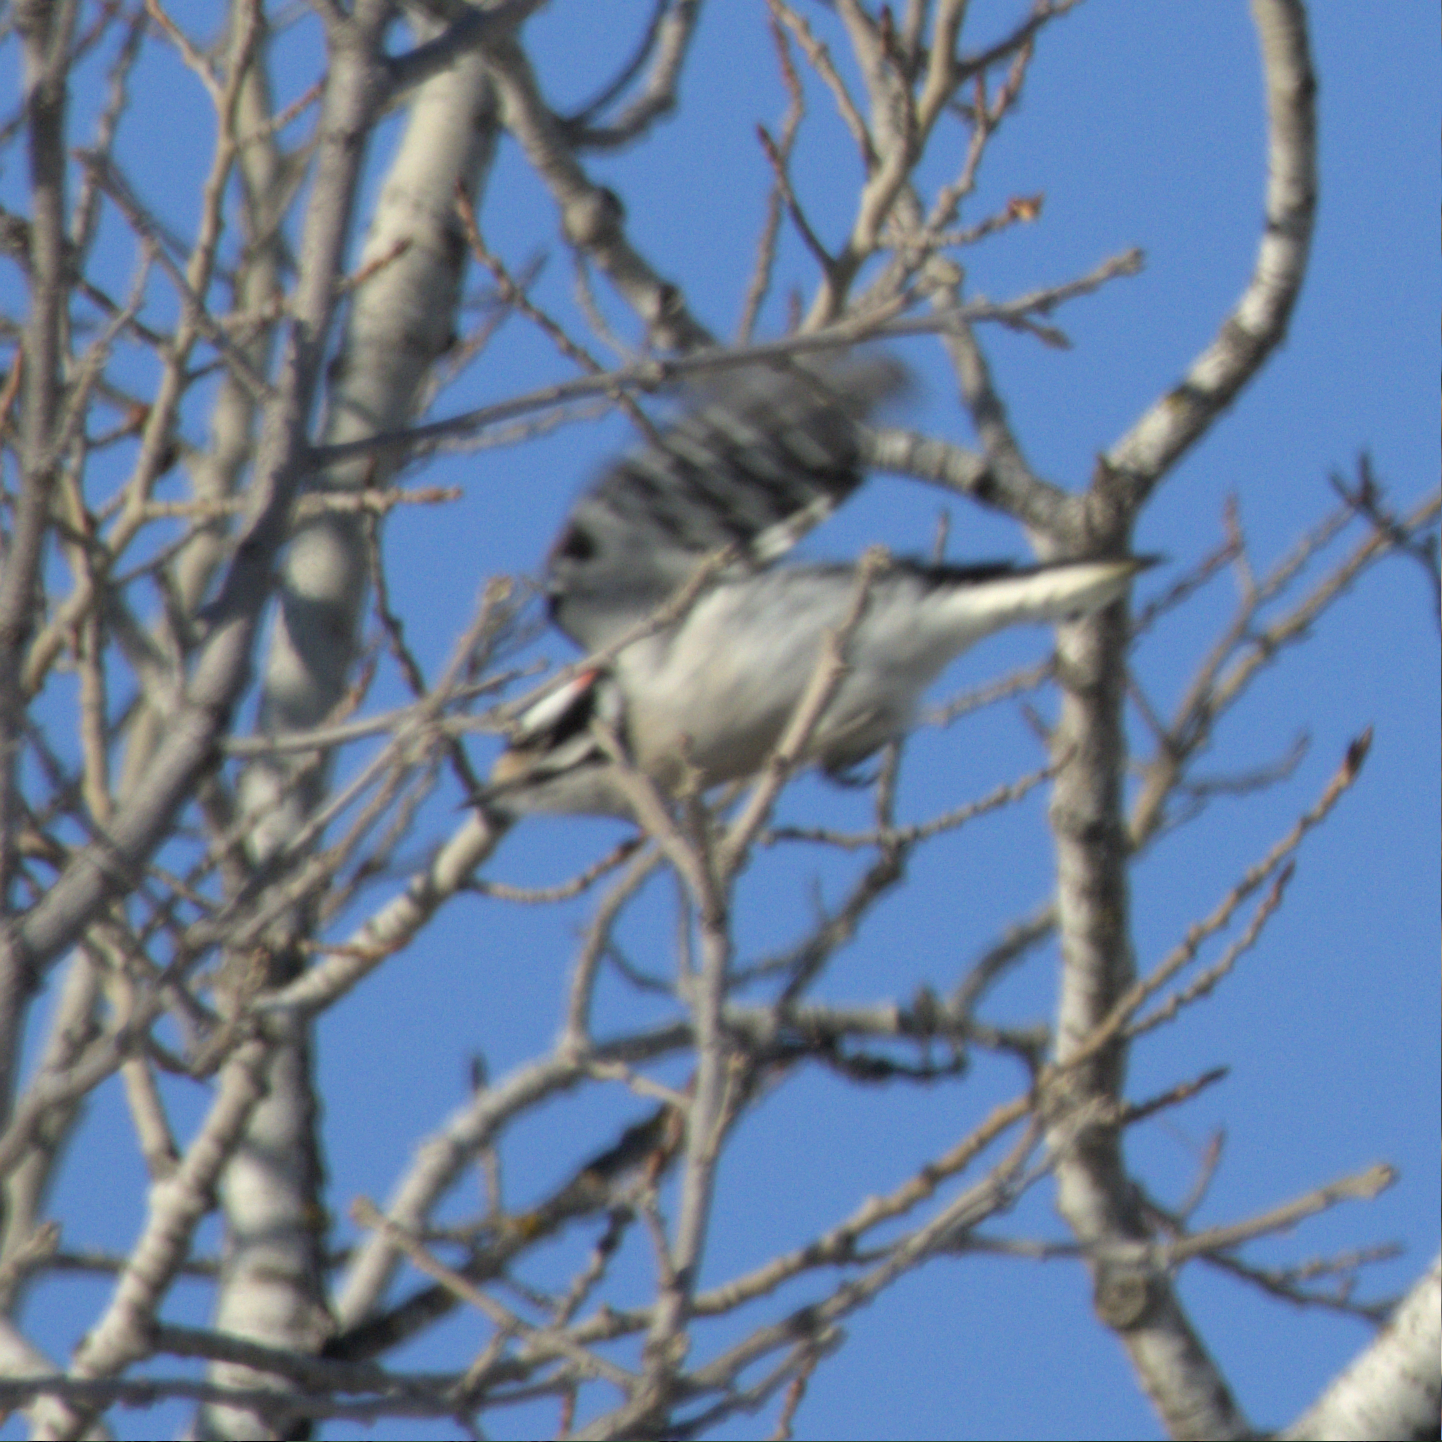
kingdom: Animalia
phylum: Chordata
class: Aves
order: Piciformes
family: Picidae
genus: Dryobates
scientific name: Dryobates pubescens
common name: Downy woodpecker
